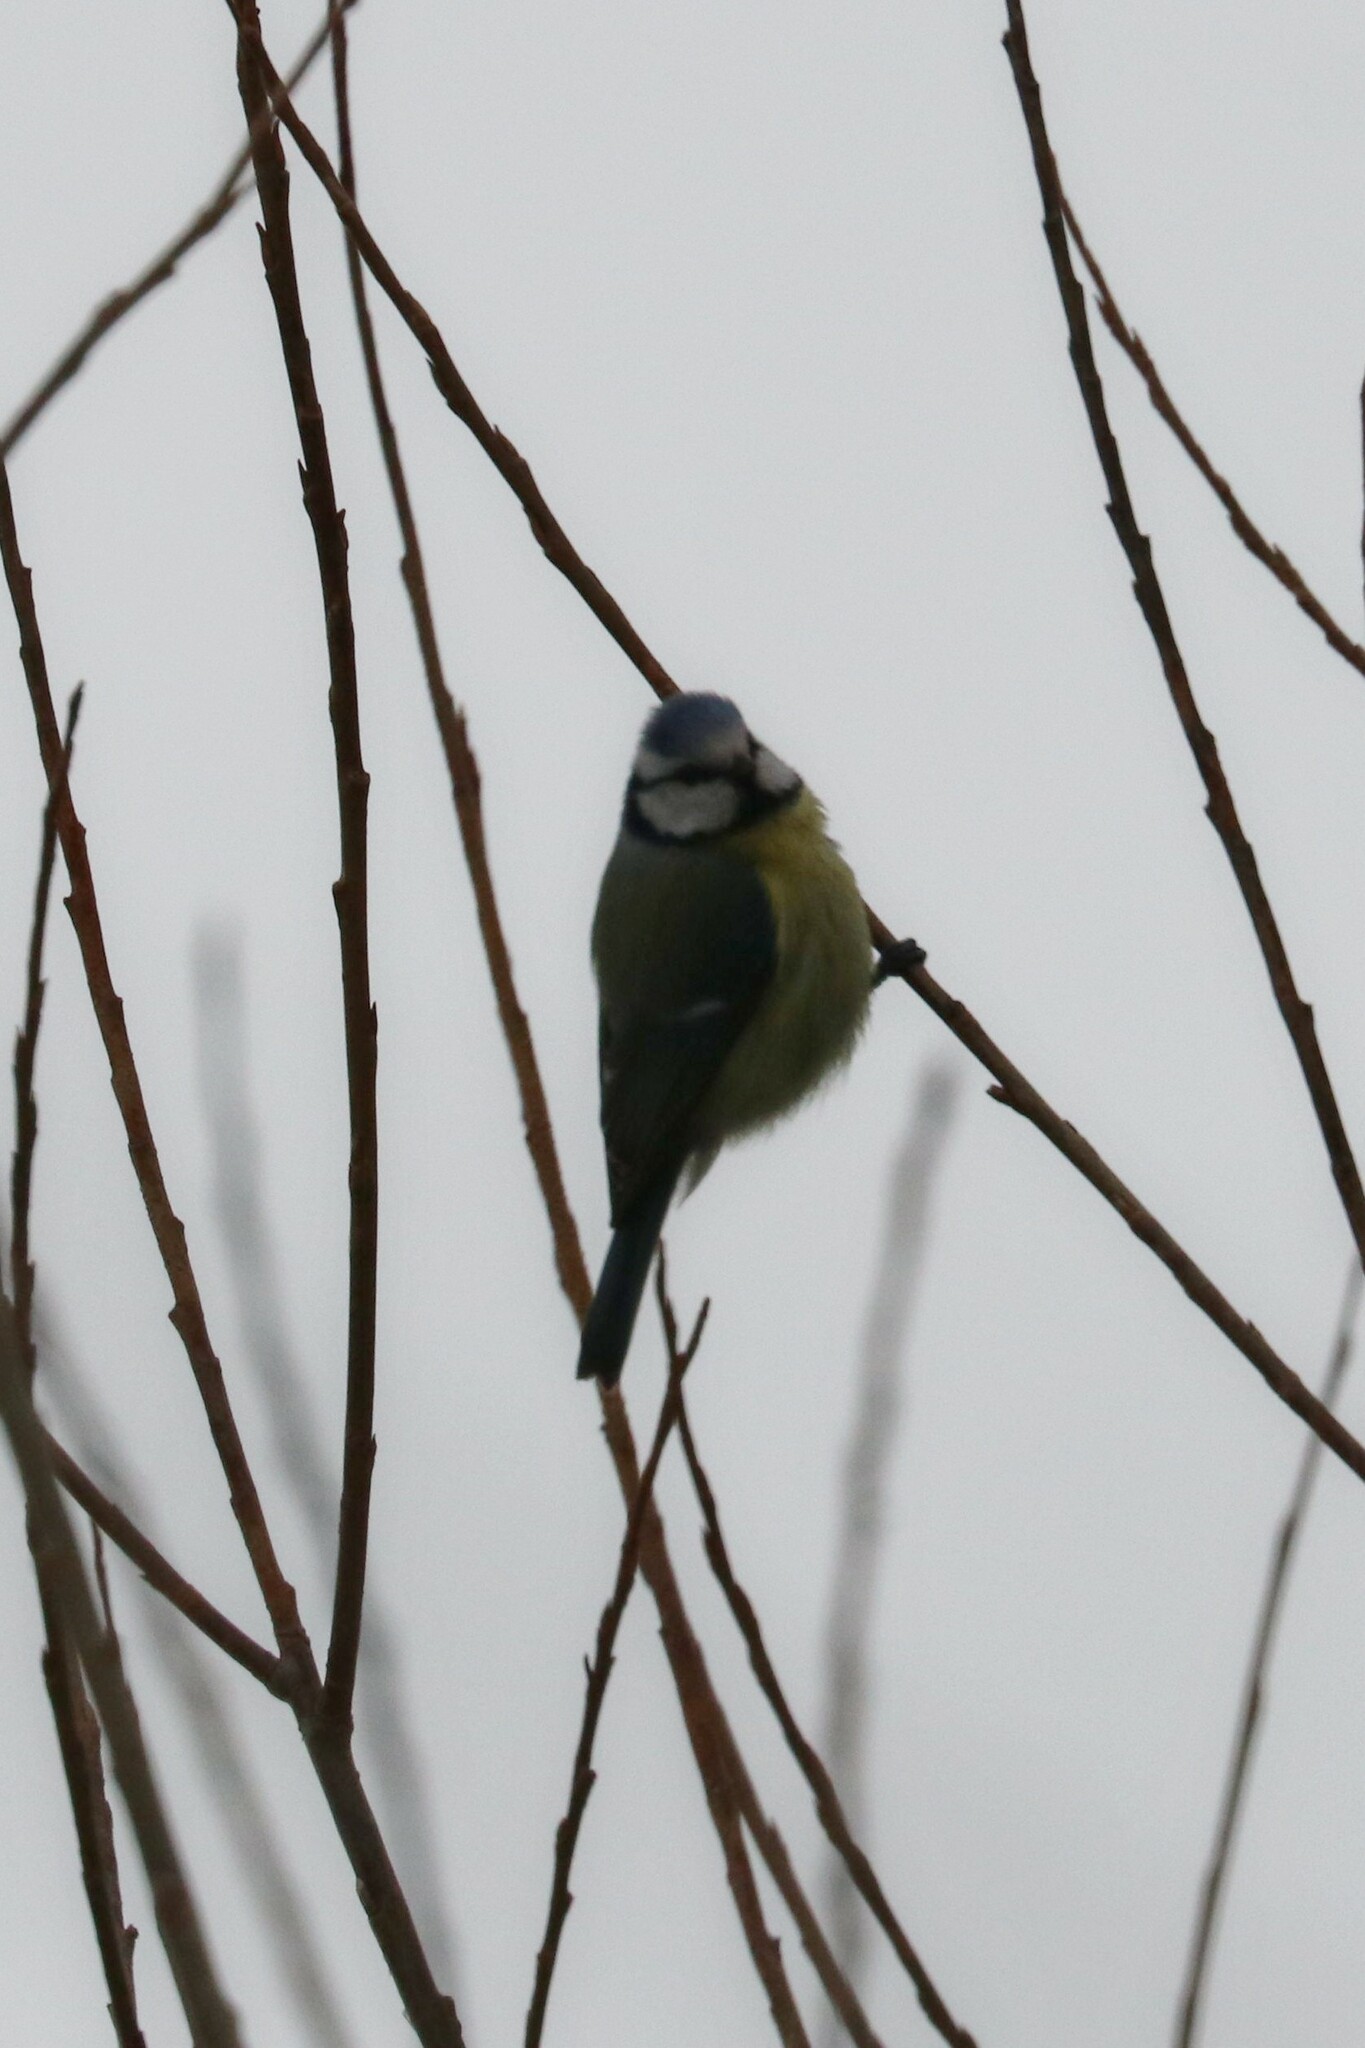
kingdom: Animalia
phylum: Chordata
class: Aves
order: Passeriformes
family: Paridae
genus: Cyanistes
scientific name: Cyanistes caeruleus
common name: Eurasian blue tit
